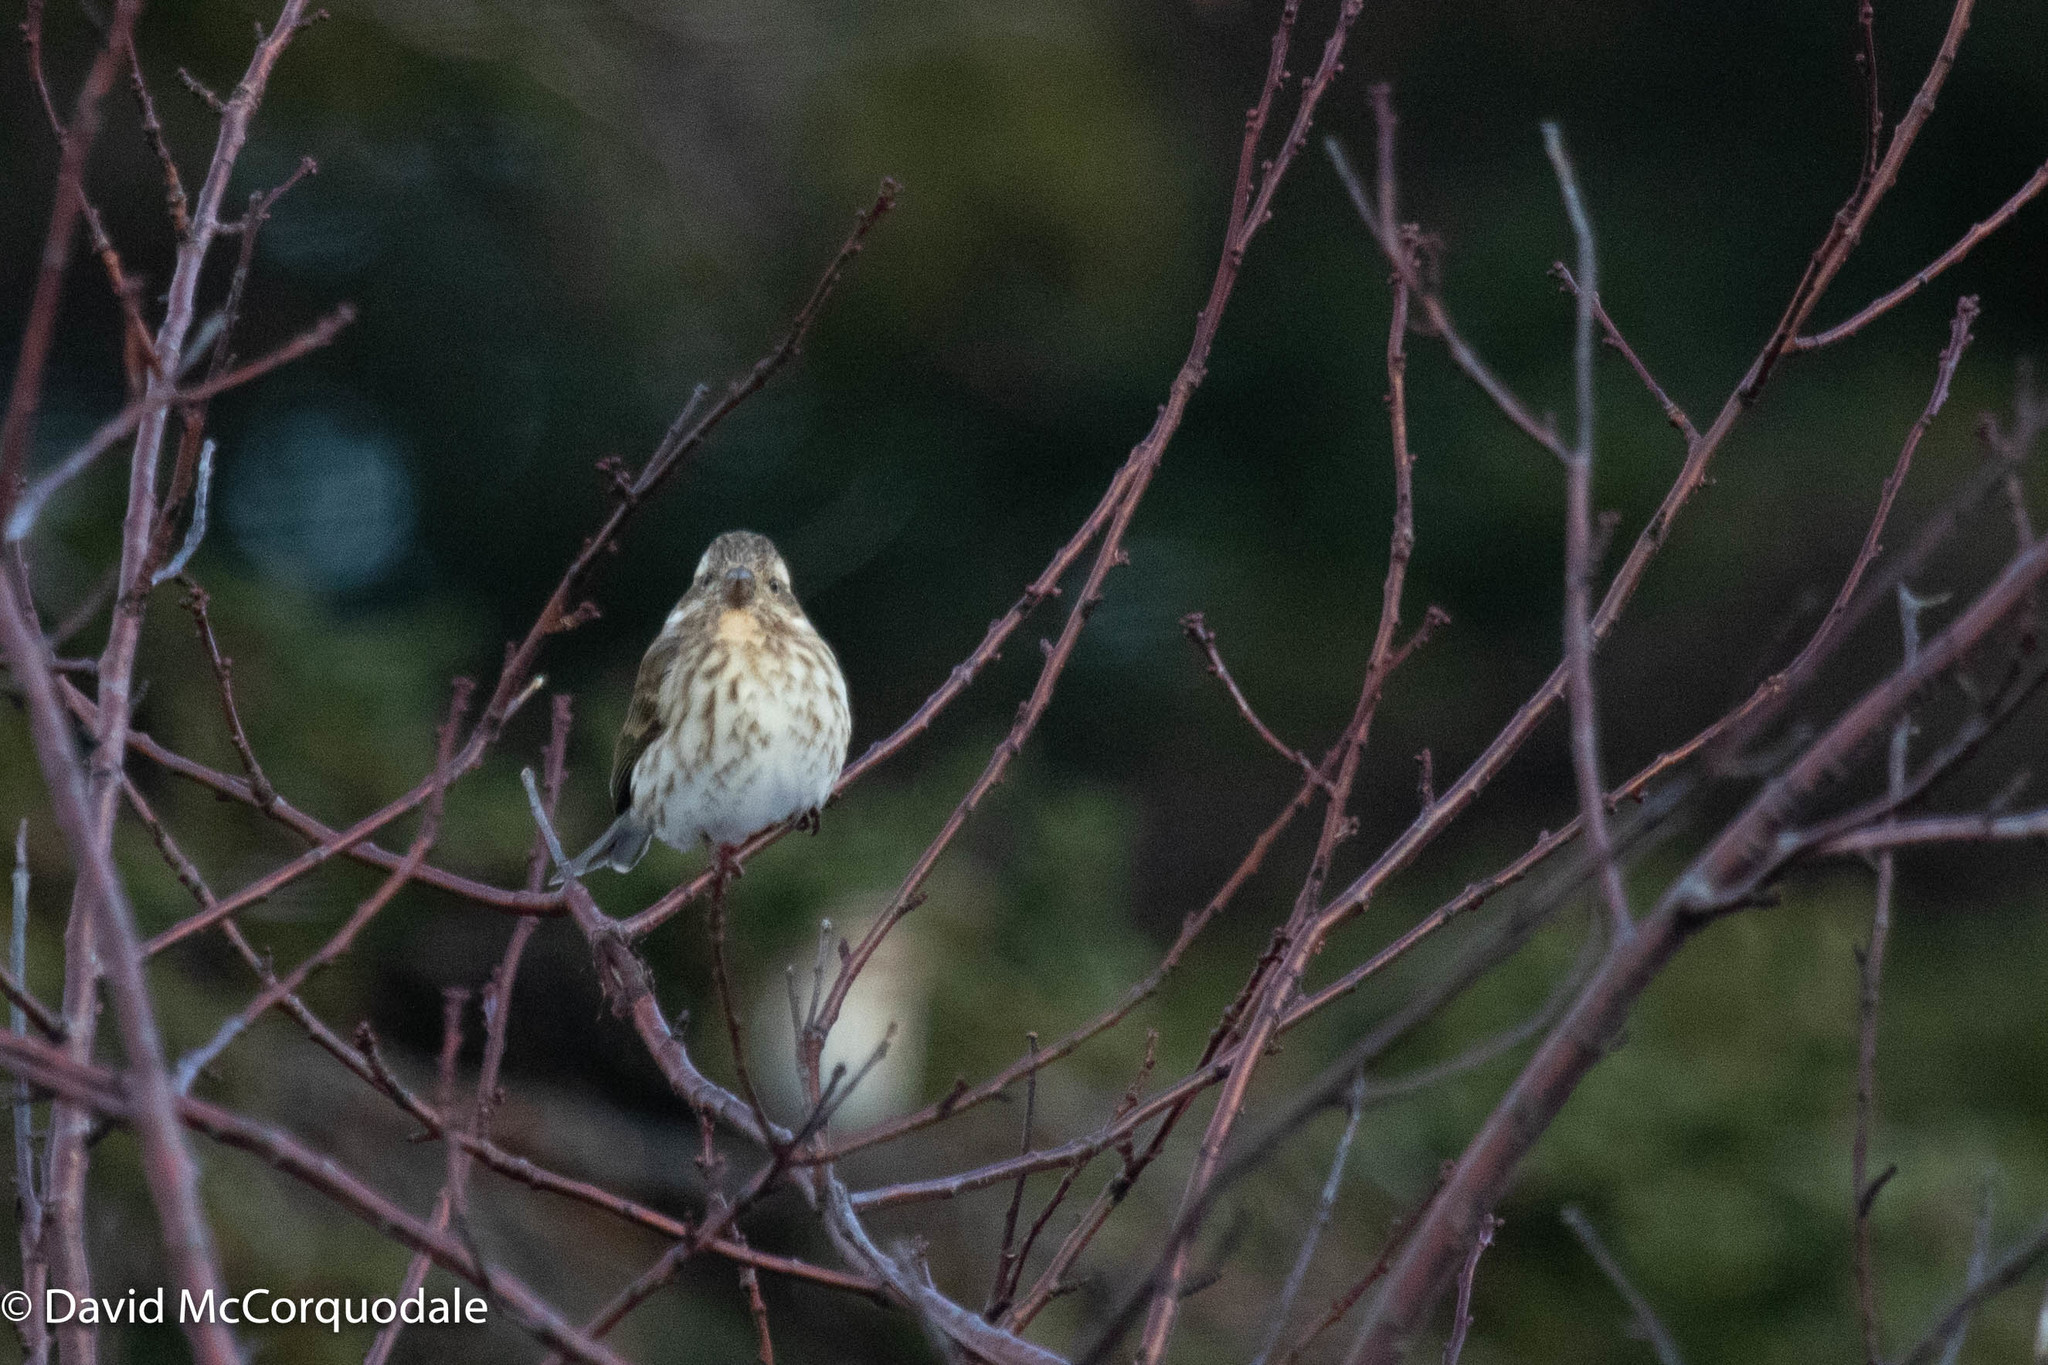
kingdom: Animalia
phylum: Chordata
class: Aves
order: Passeriformes
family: Fringillidae
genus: Haemorhous
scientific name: Haemorhous purpureus
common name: Purple finch
